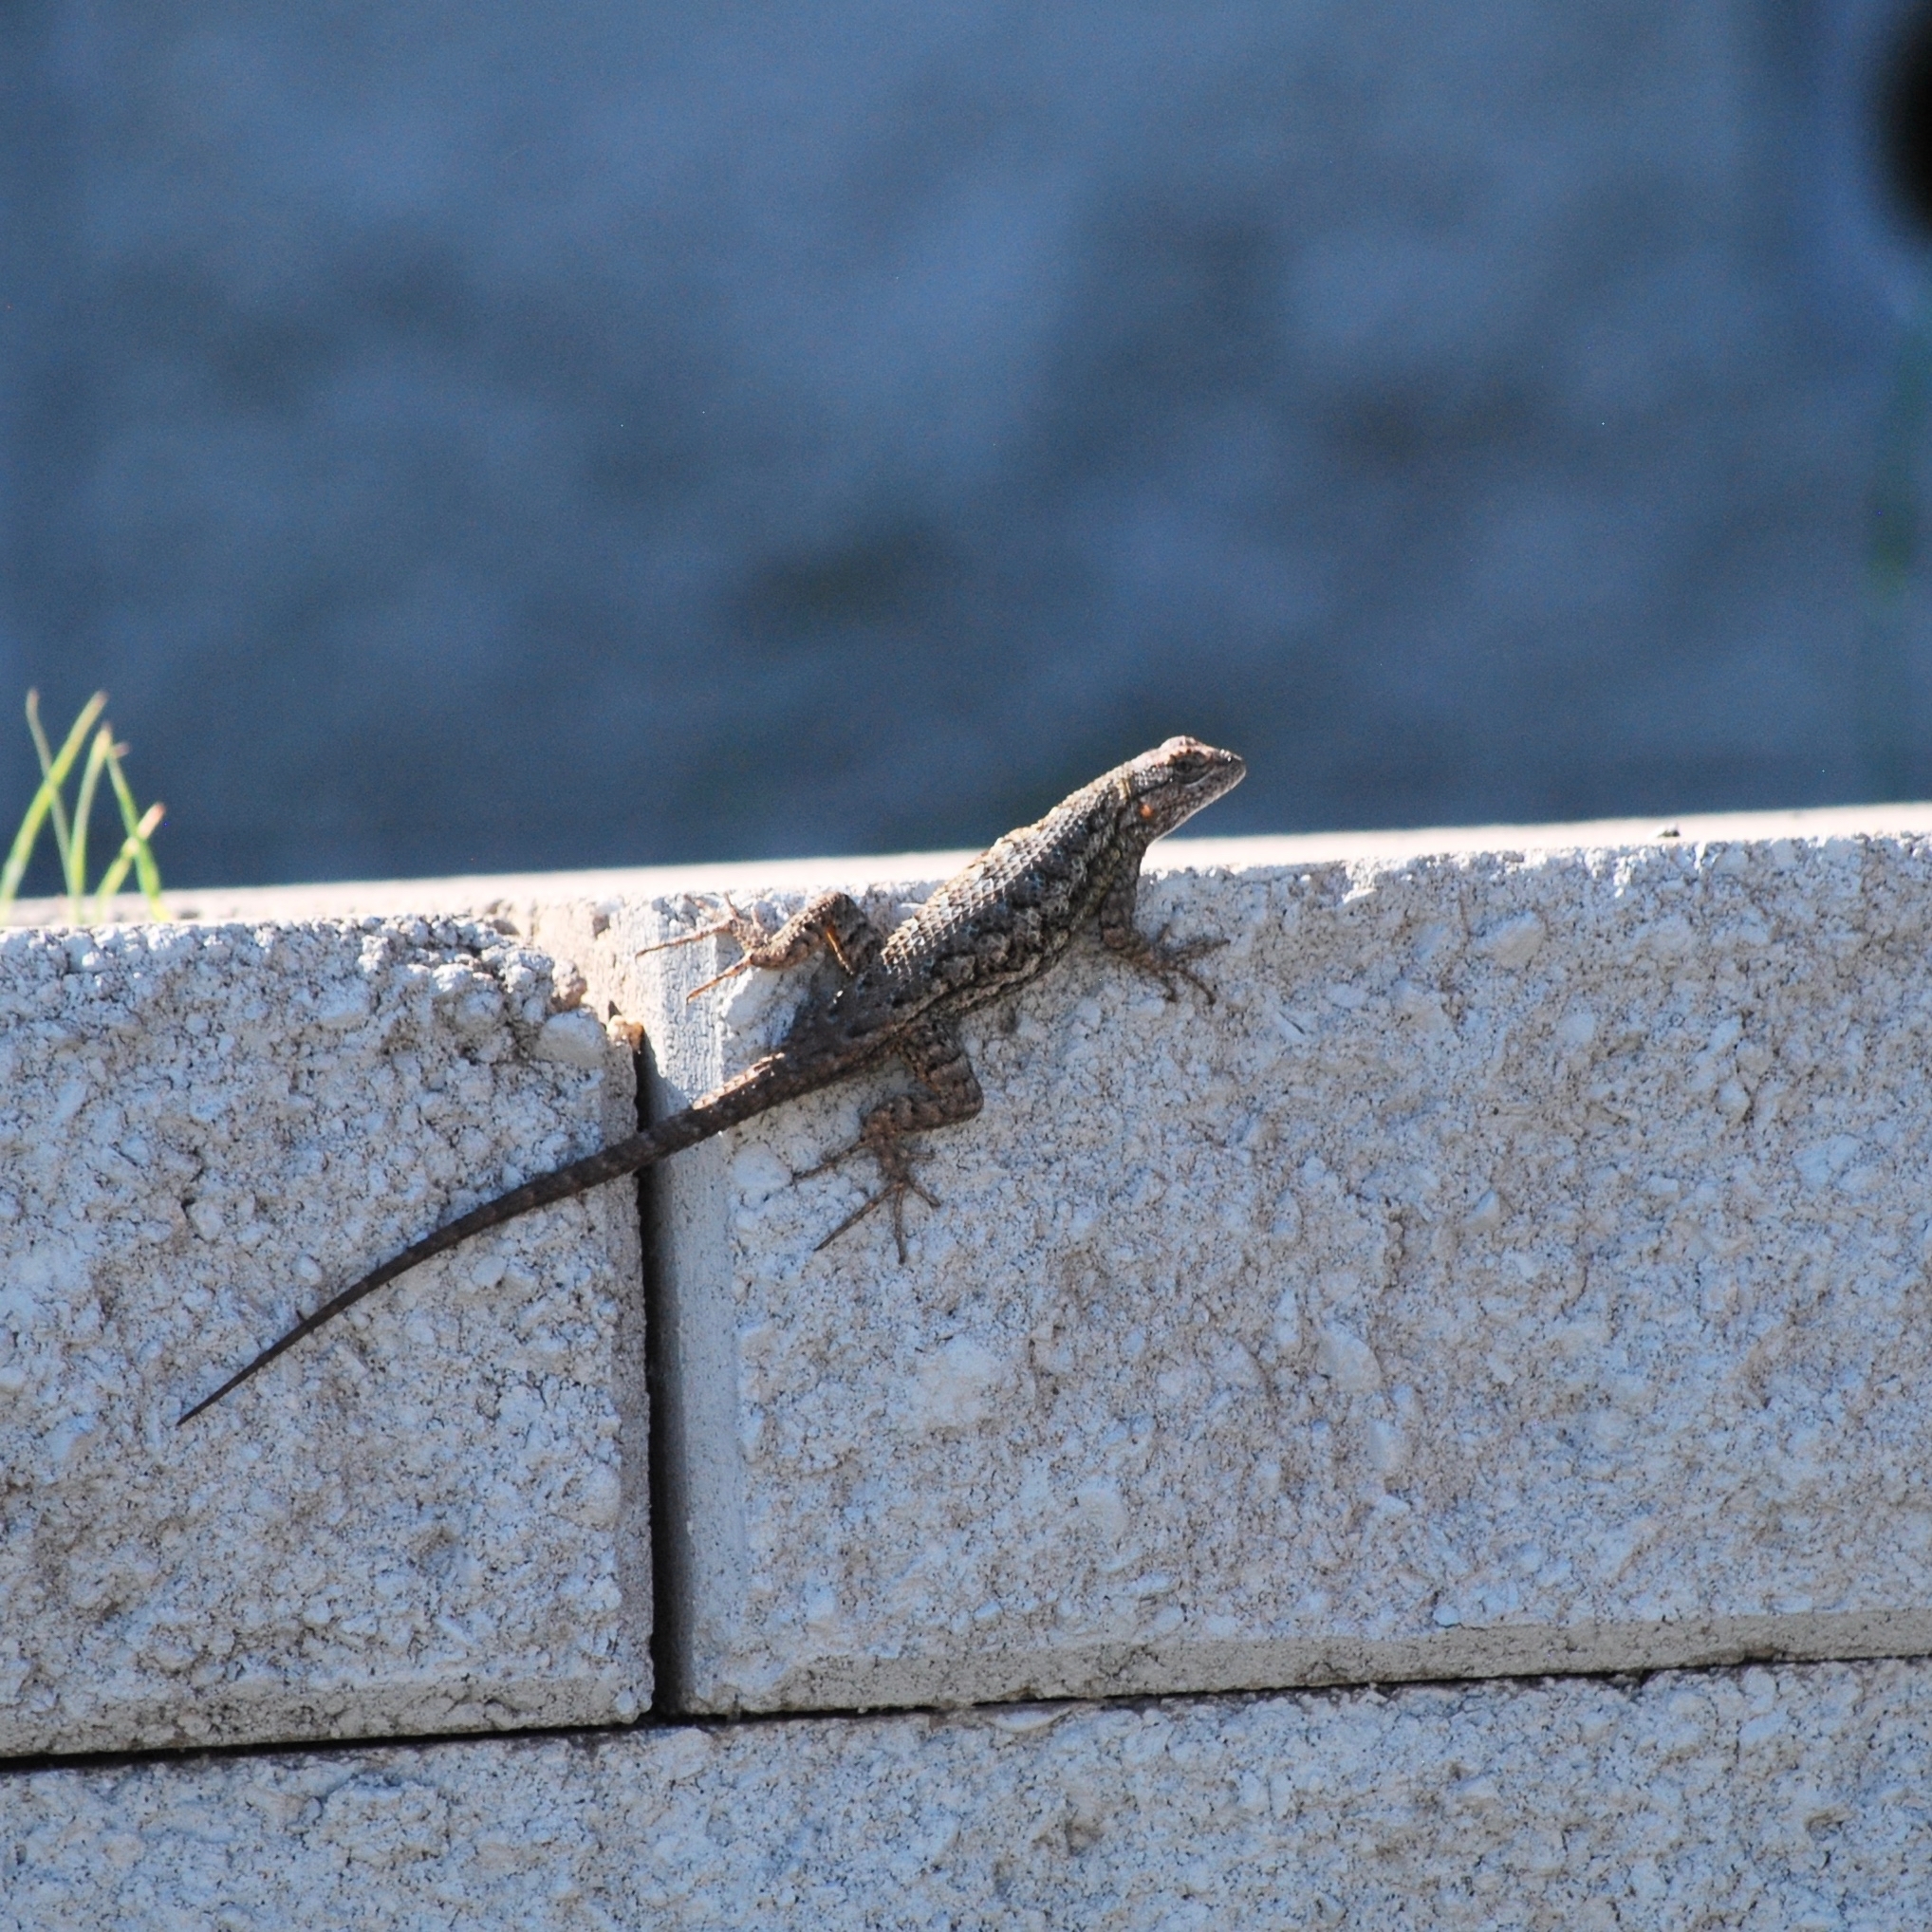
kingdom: Animalia
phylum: Chordata
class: Squamata
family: Phrynosomatidae
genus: Sceloporus
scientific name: Sceloporus occidentalis
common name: Western fence lizard
